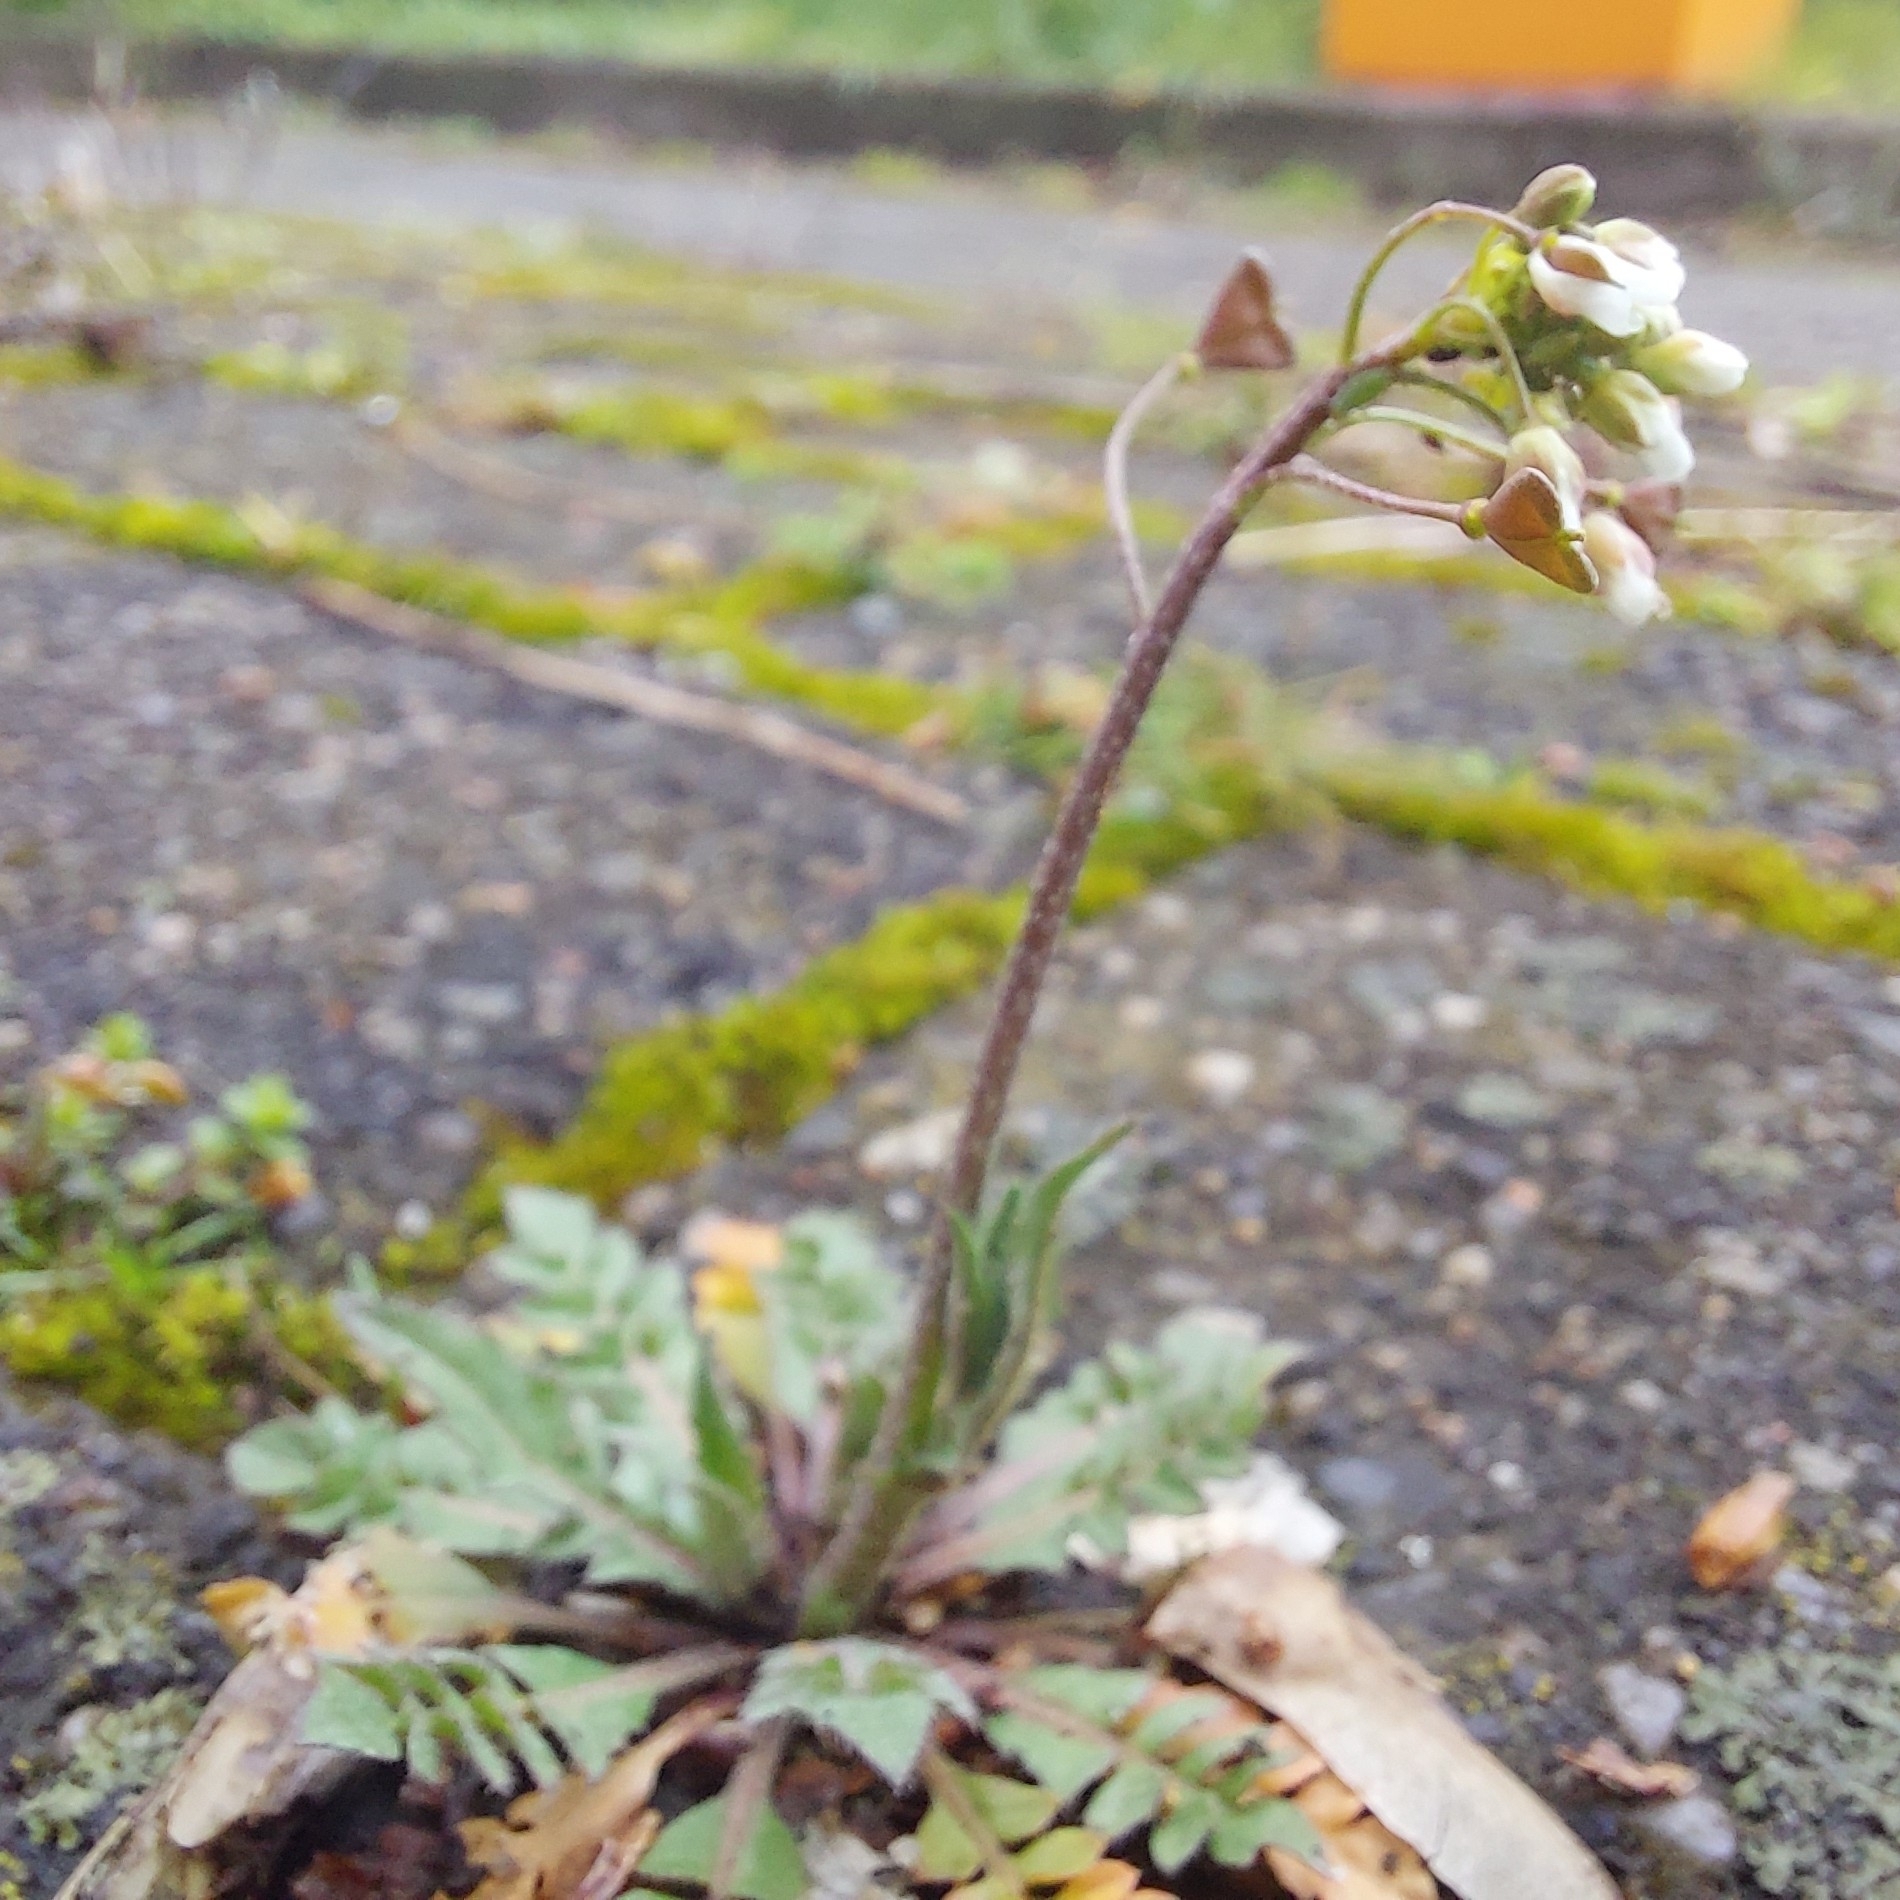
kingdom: Plantae
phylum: Tracheophyta
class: Magnoliopsida
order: Brassicales
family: Brassicaceae
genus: Capsella
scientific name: Capsella bursa-pastoris
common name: Shepherd's purse
